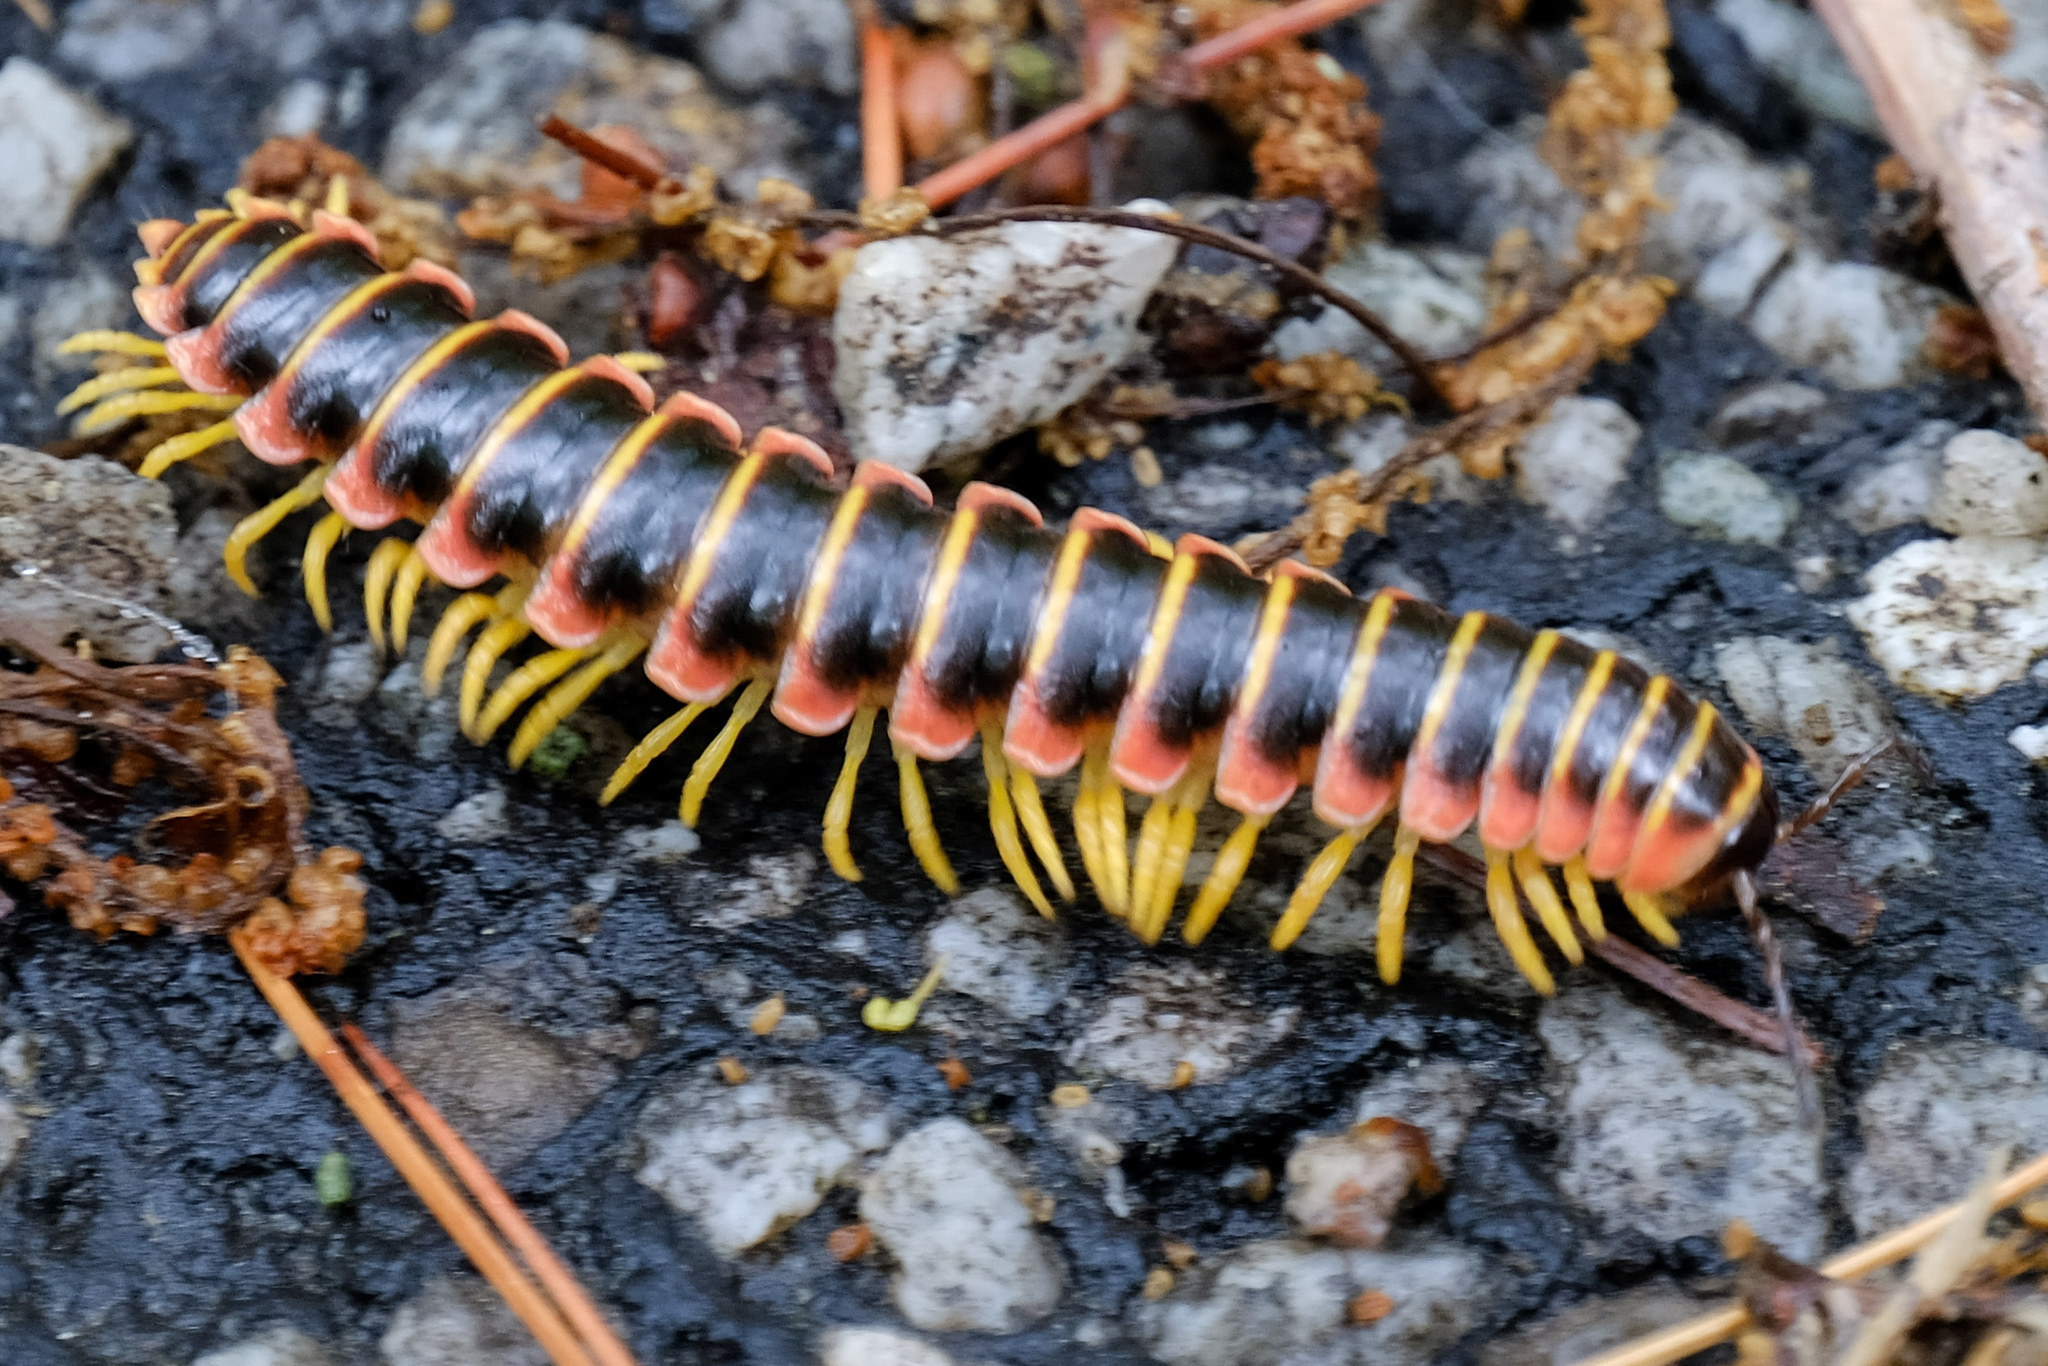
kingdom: Animalia
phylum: Arthropoda
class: Diplopoda
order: Polydesmida
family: Xystodesmidae
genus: Apheloria
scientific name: Apheloria virginiensis
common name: Black-and-gold flat millipede
